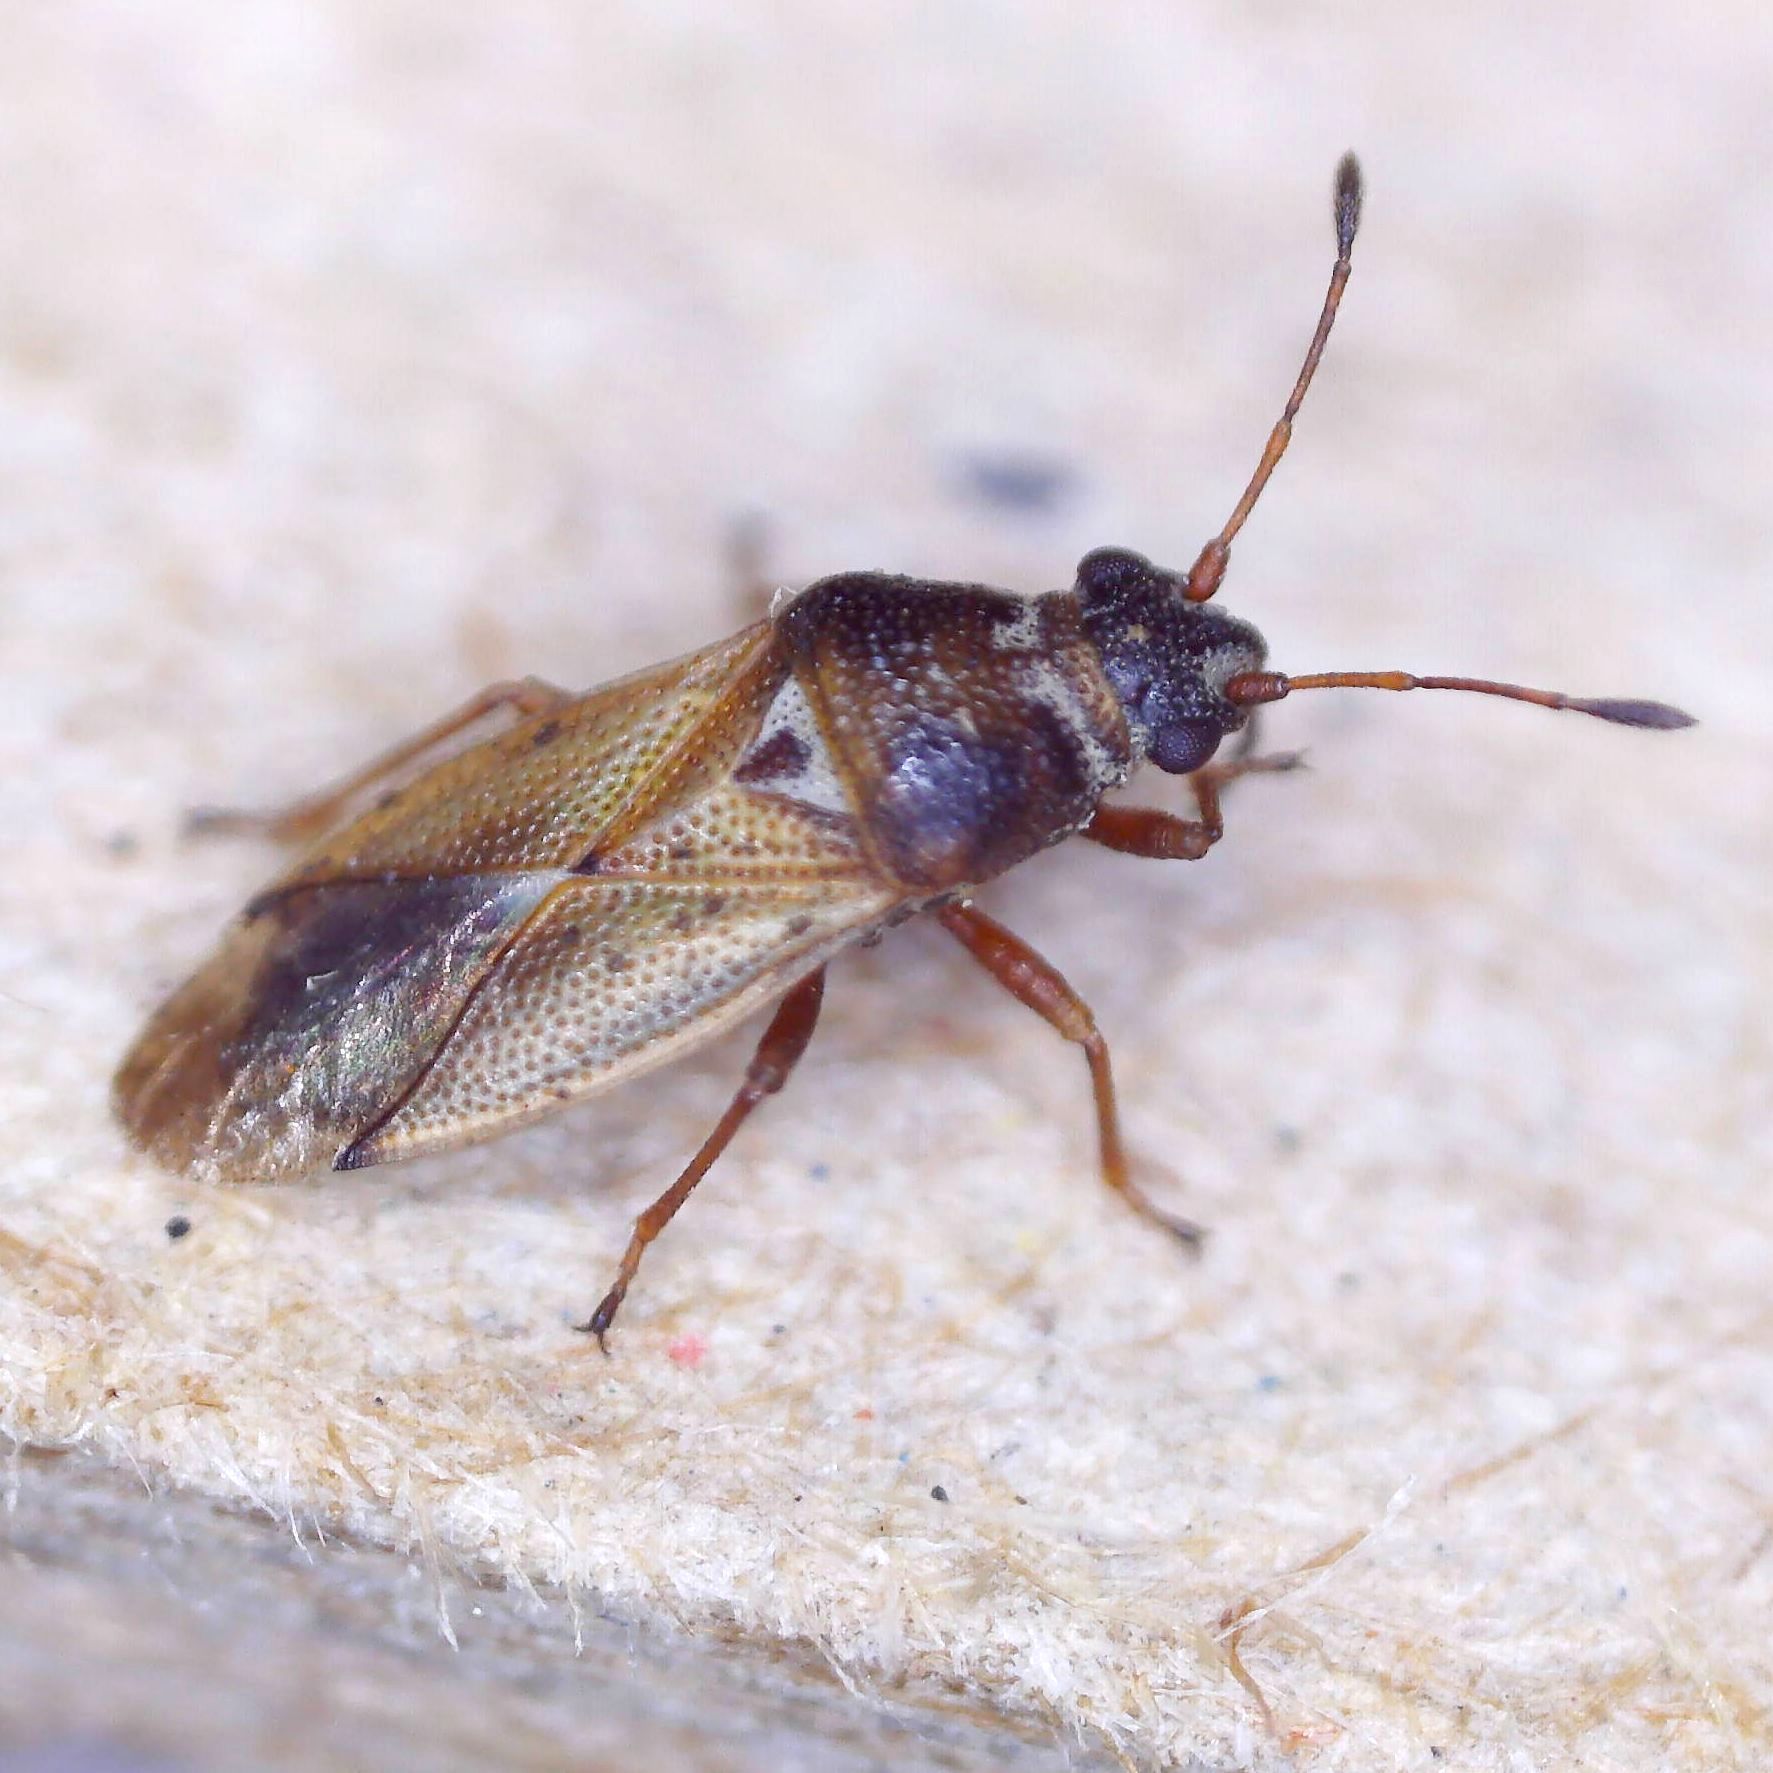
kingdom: Animalia
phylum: Arthropoda
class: Insecta
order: Hemiptera
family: Cymidae
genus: Cymus
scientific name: Cymus melanocephalus
